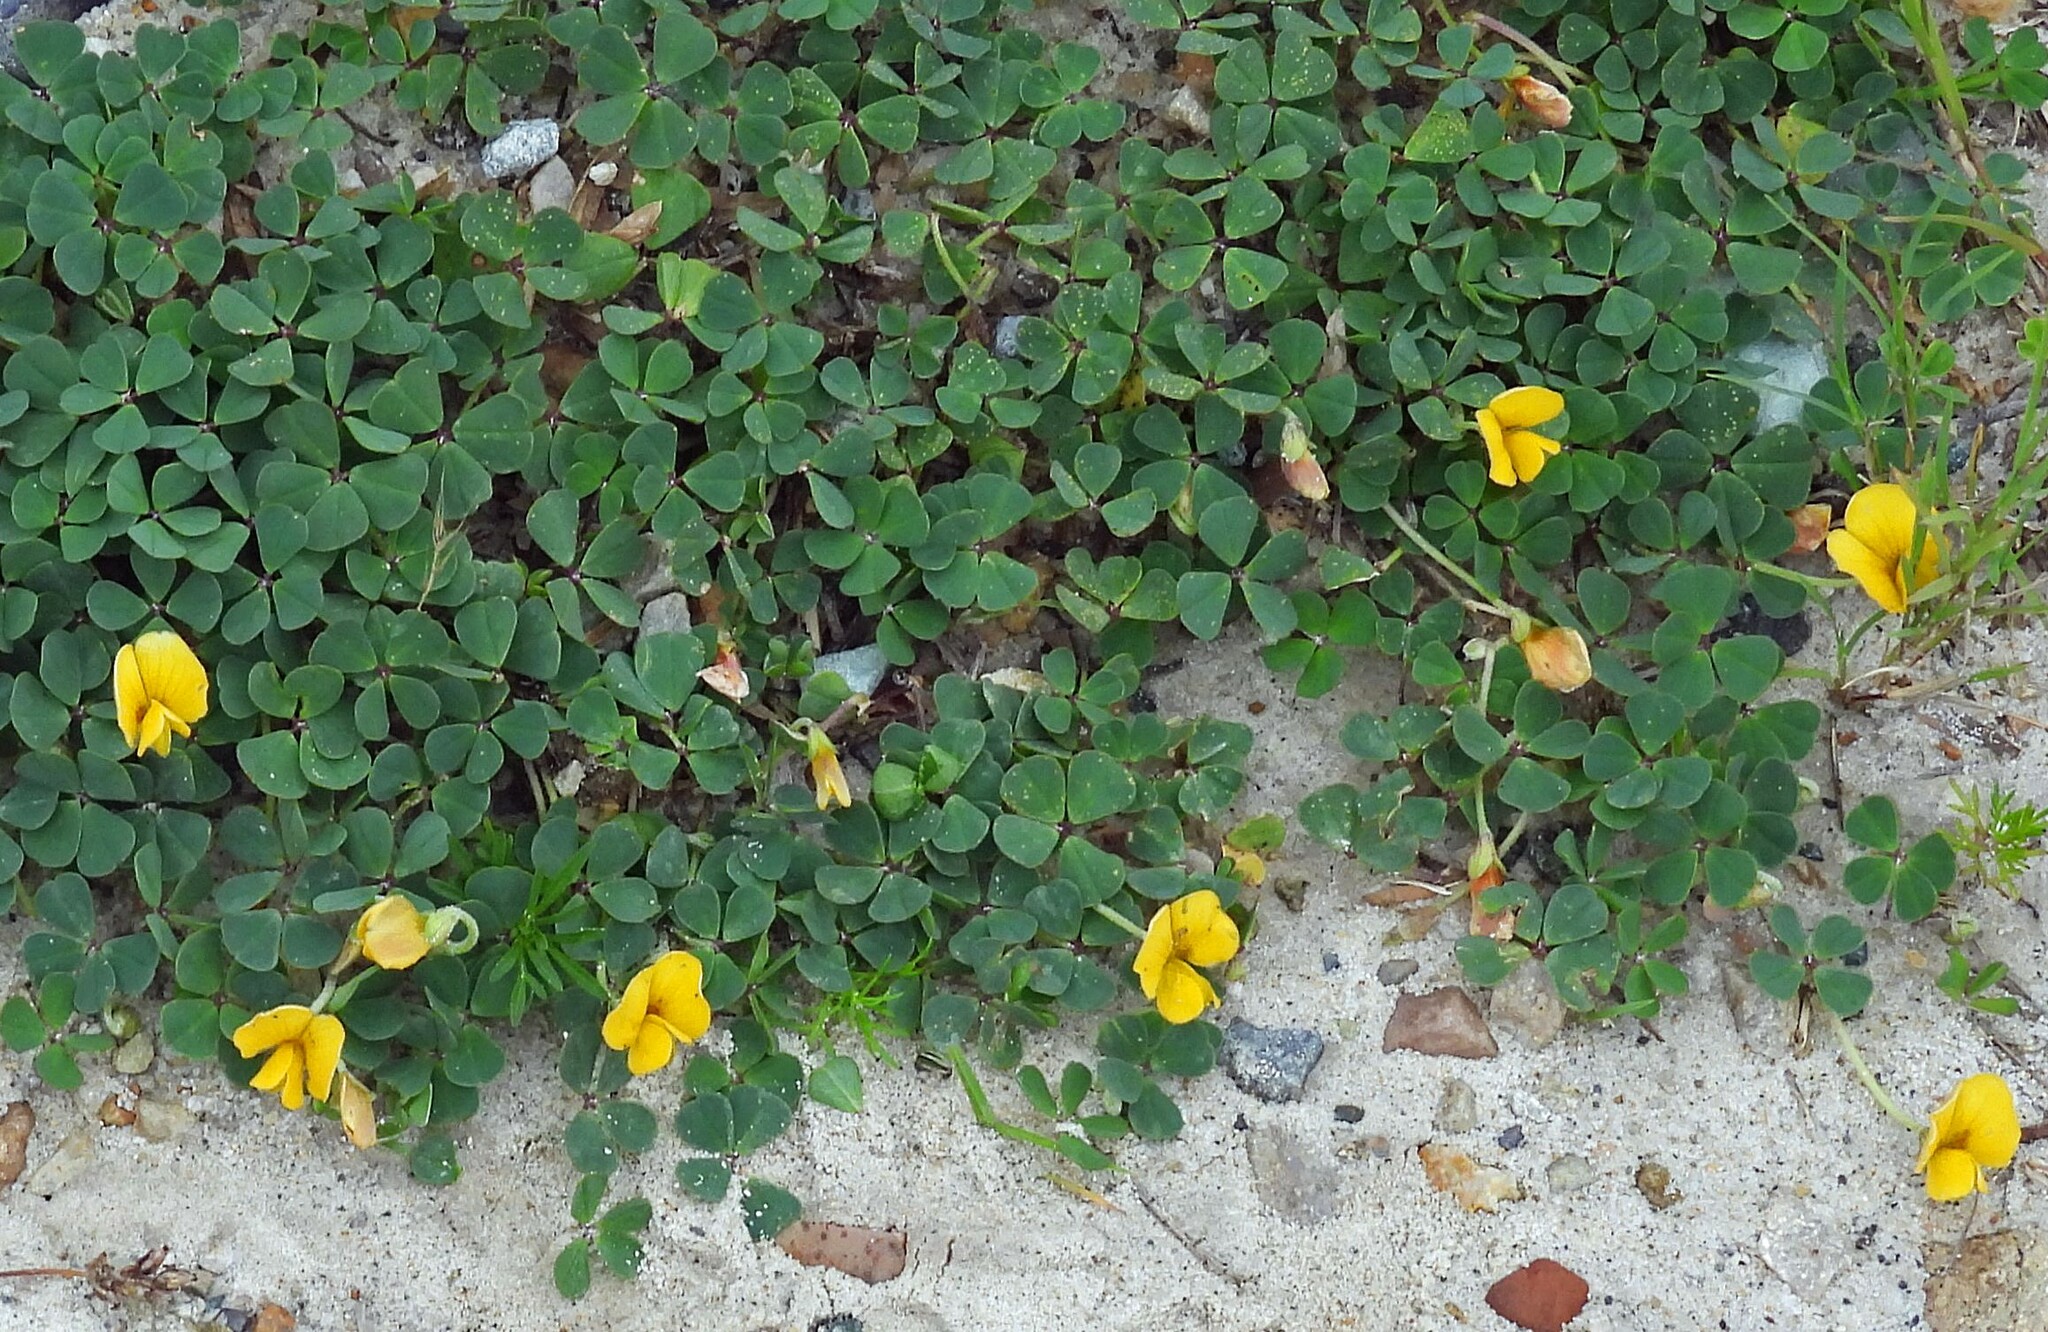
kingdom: Plantae
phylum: Tracheophyta
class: Magnoliopsida
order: Fabales
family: Fabaceae
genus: Amicia
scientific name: Amicia andicola
